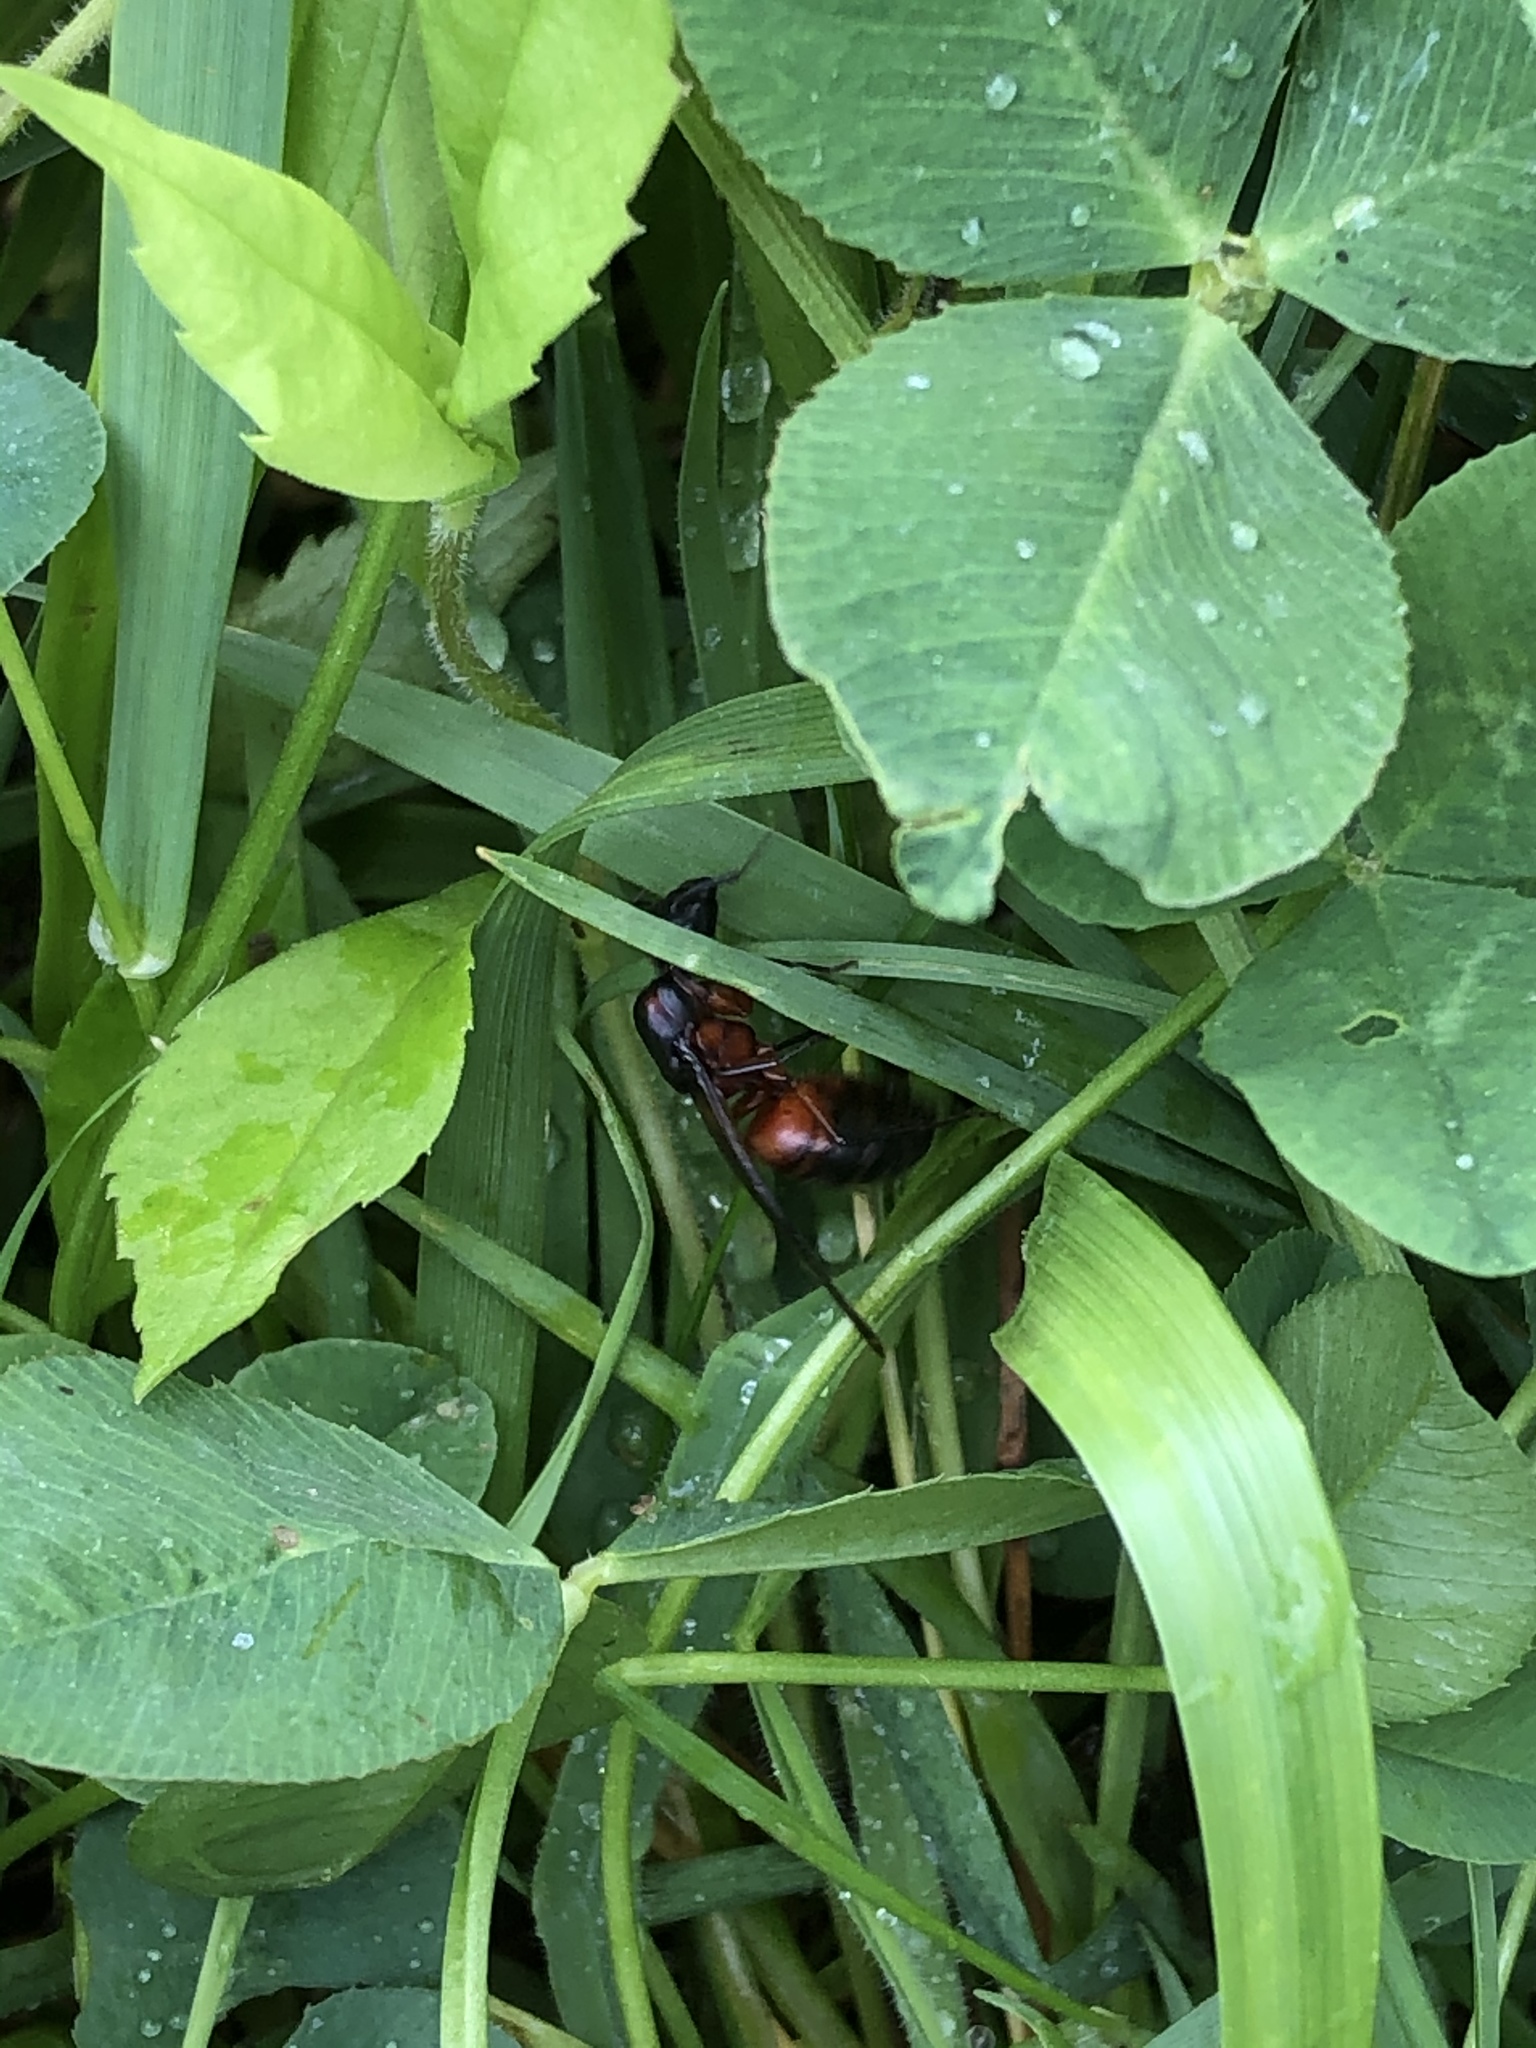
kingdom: Animalia
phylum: Arthropoda
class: Insecta
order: Hymenoptera
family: Formicidae
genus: Camponotus
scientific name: Camponotus chromaiodes
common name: Red carpenter ant
